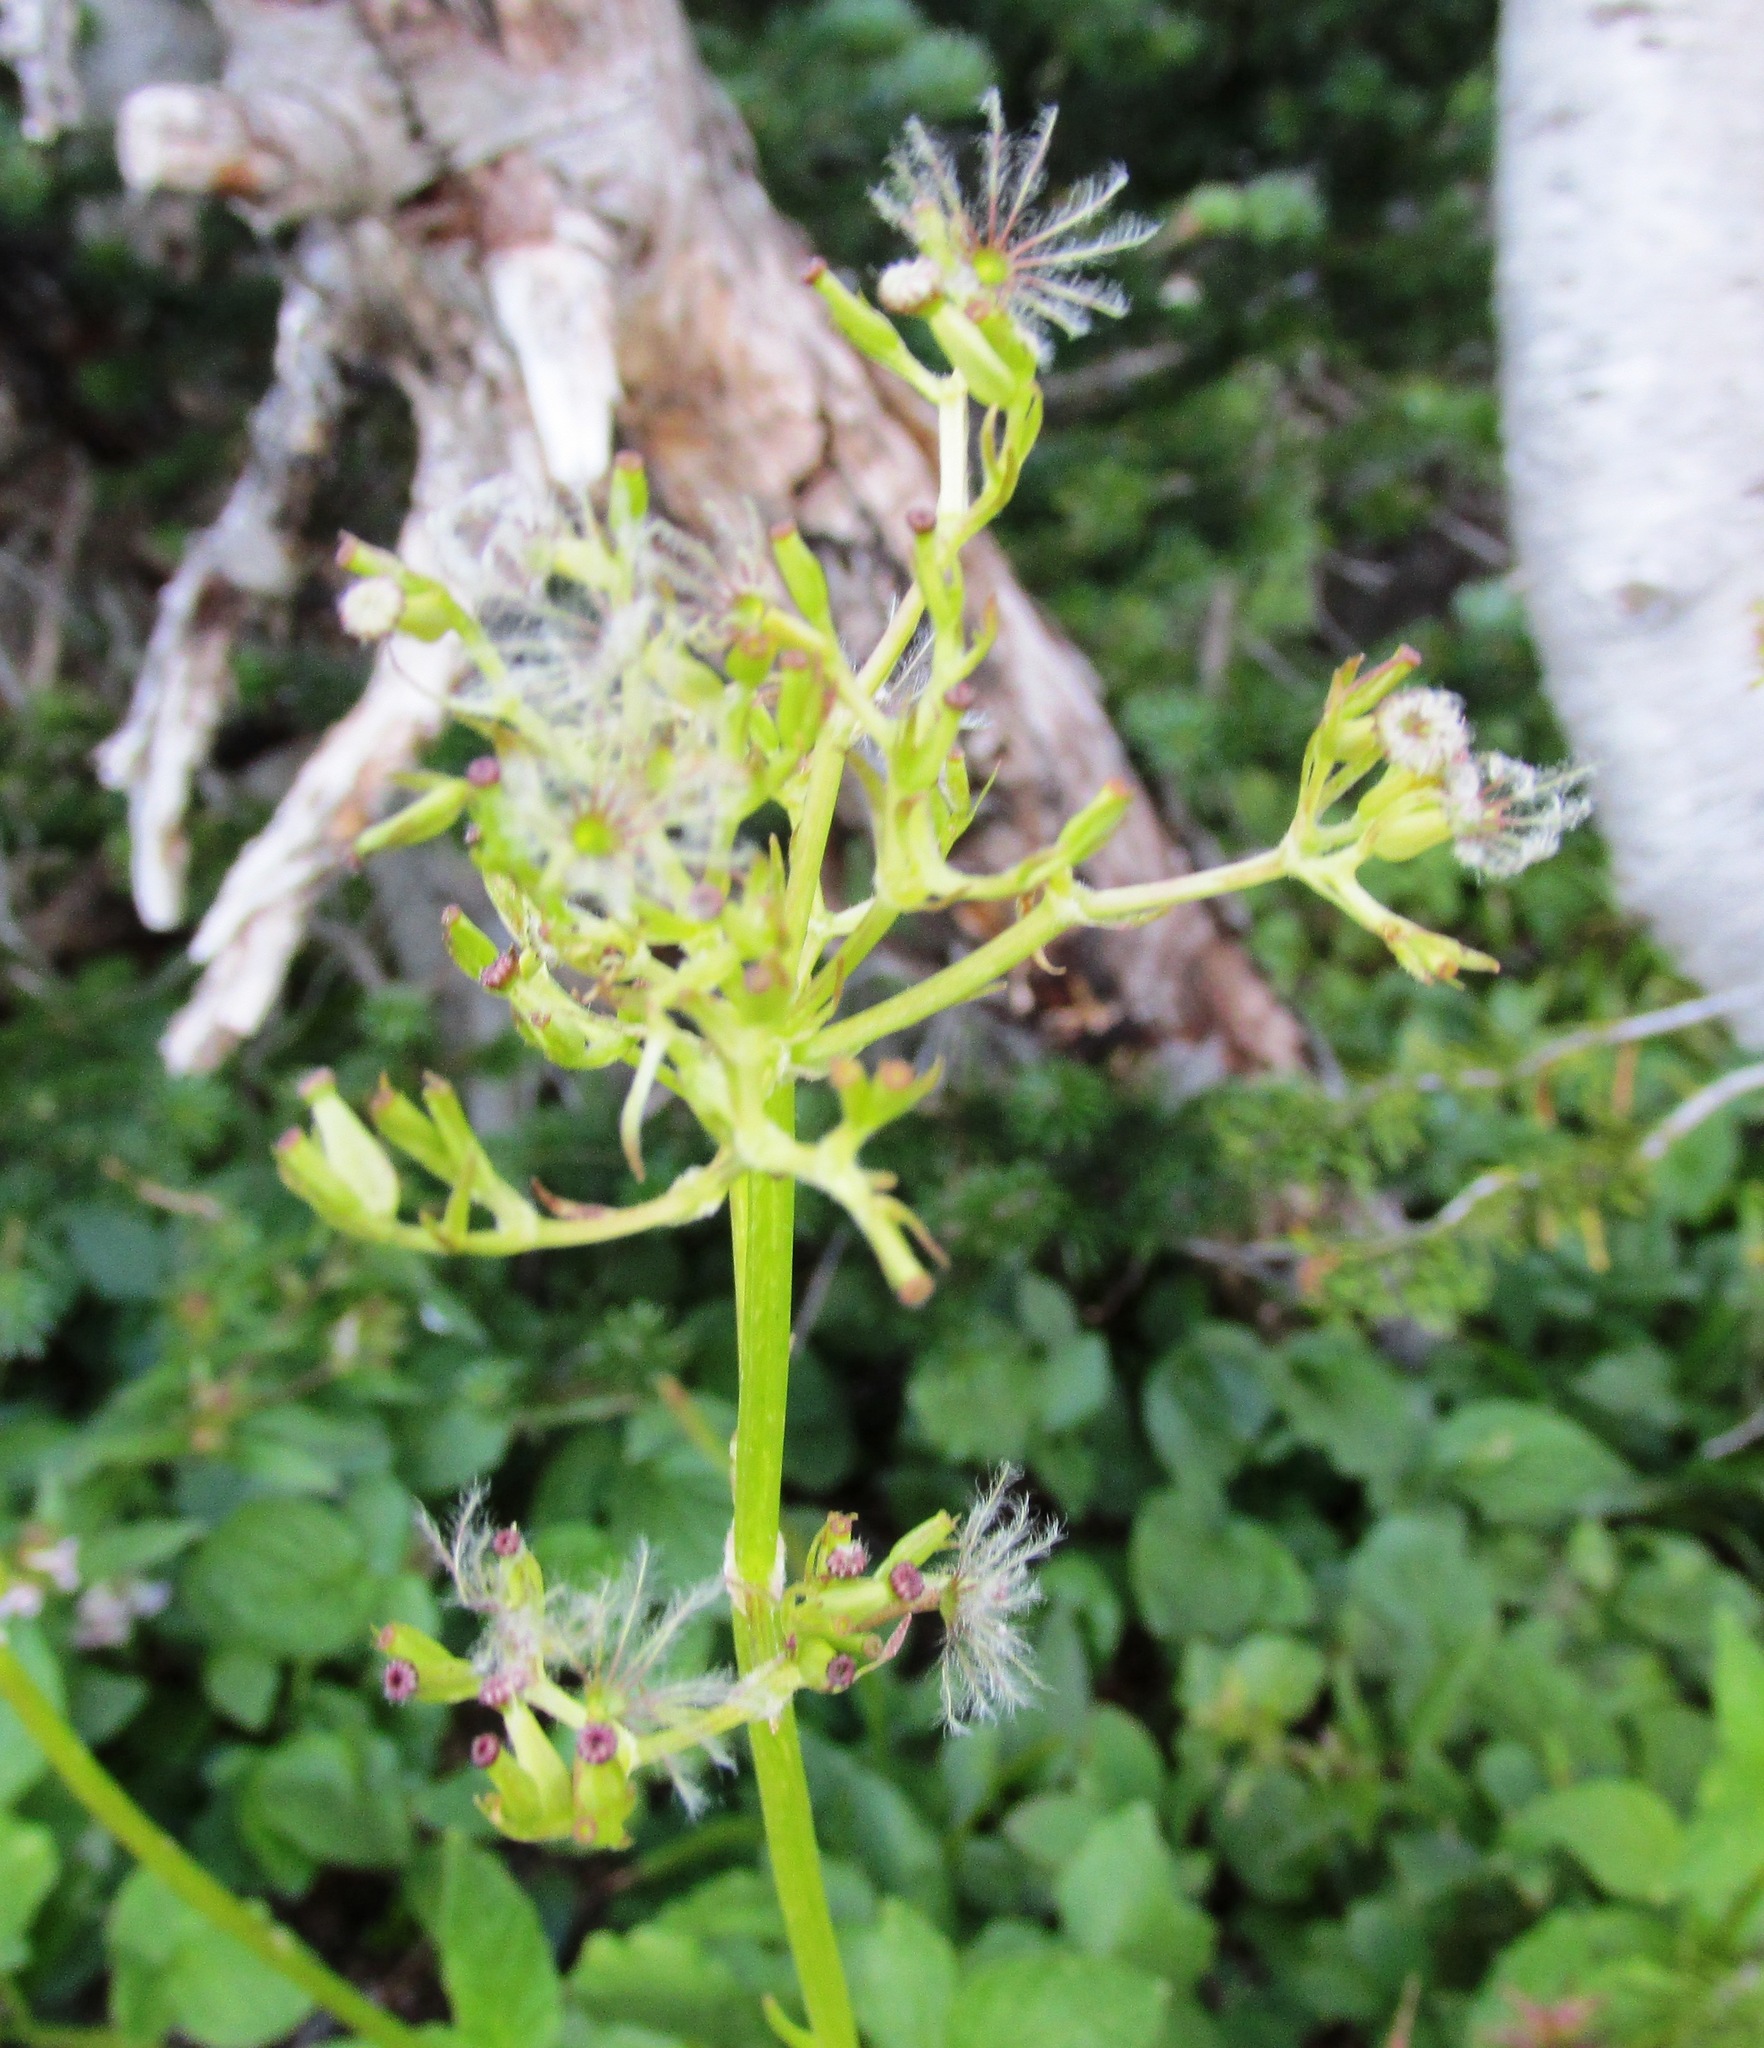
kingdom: Plantae
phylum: Tracheophyta
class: Magnoliopsida
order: Dipsacales
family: Caprifoliaceae
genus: Valeriana
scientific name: Valeriana sitchensis
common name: Pacific valerian
